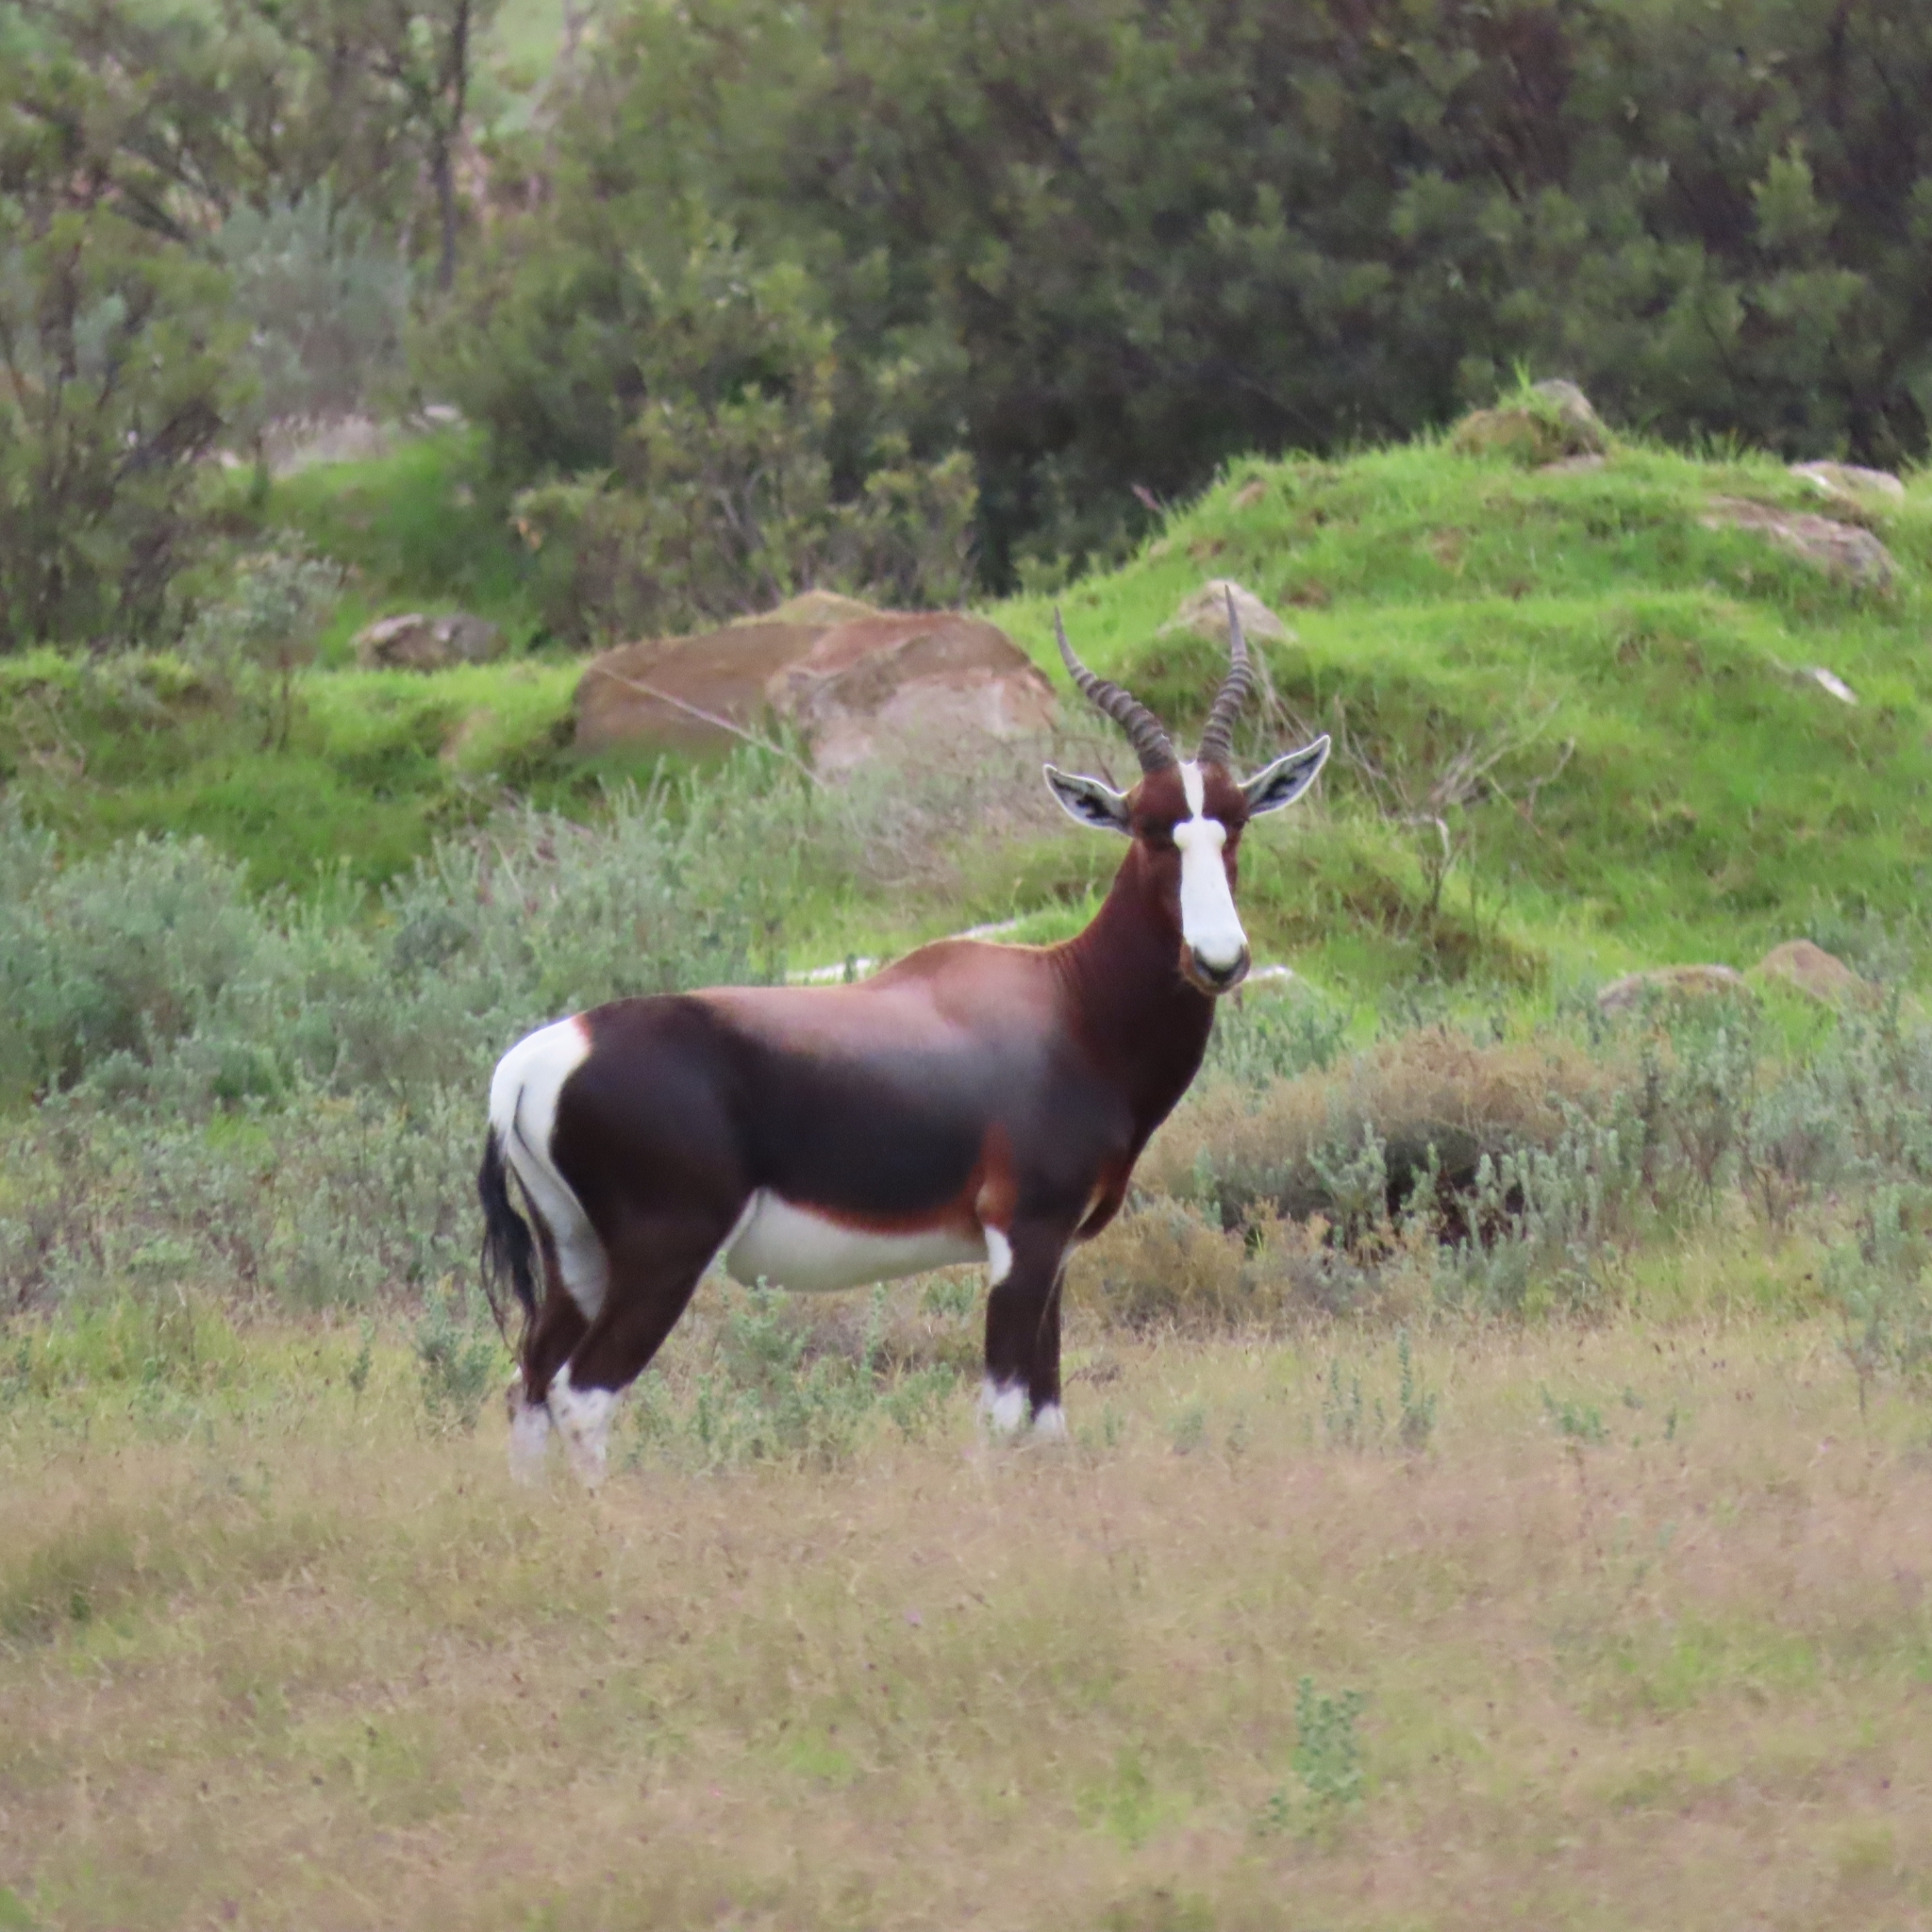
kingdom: Animalia
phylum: Chordata
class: Mammalia
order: Artiodactyla
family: Bovidae
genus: Damaliscus
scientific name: Damaliscus pygargus
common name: Bontebok
